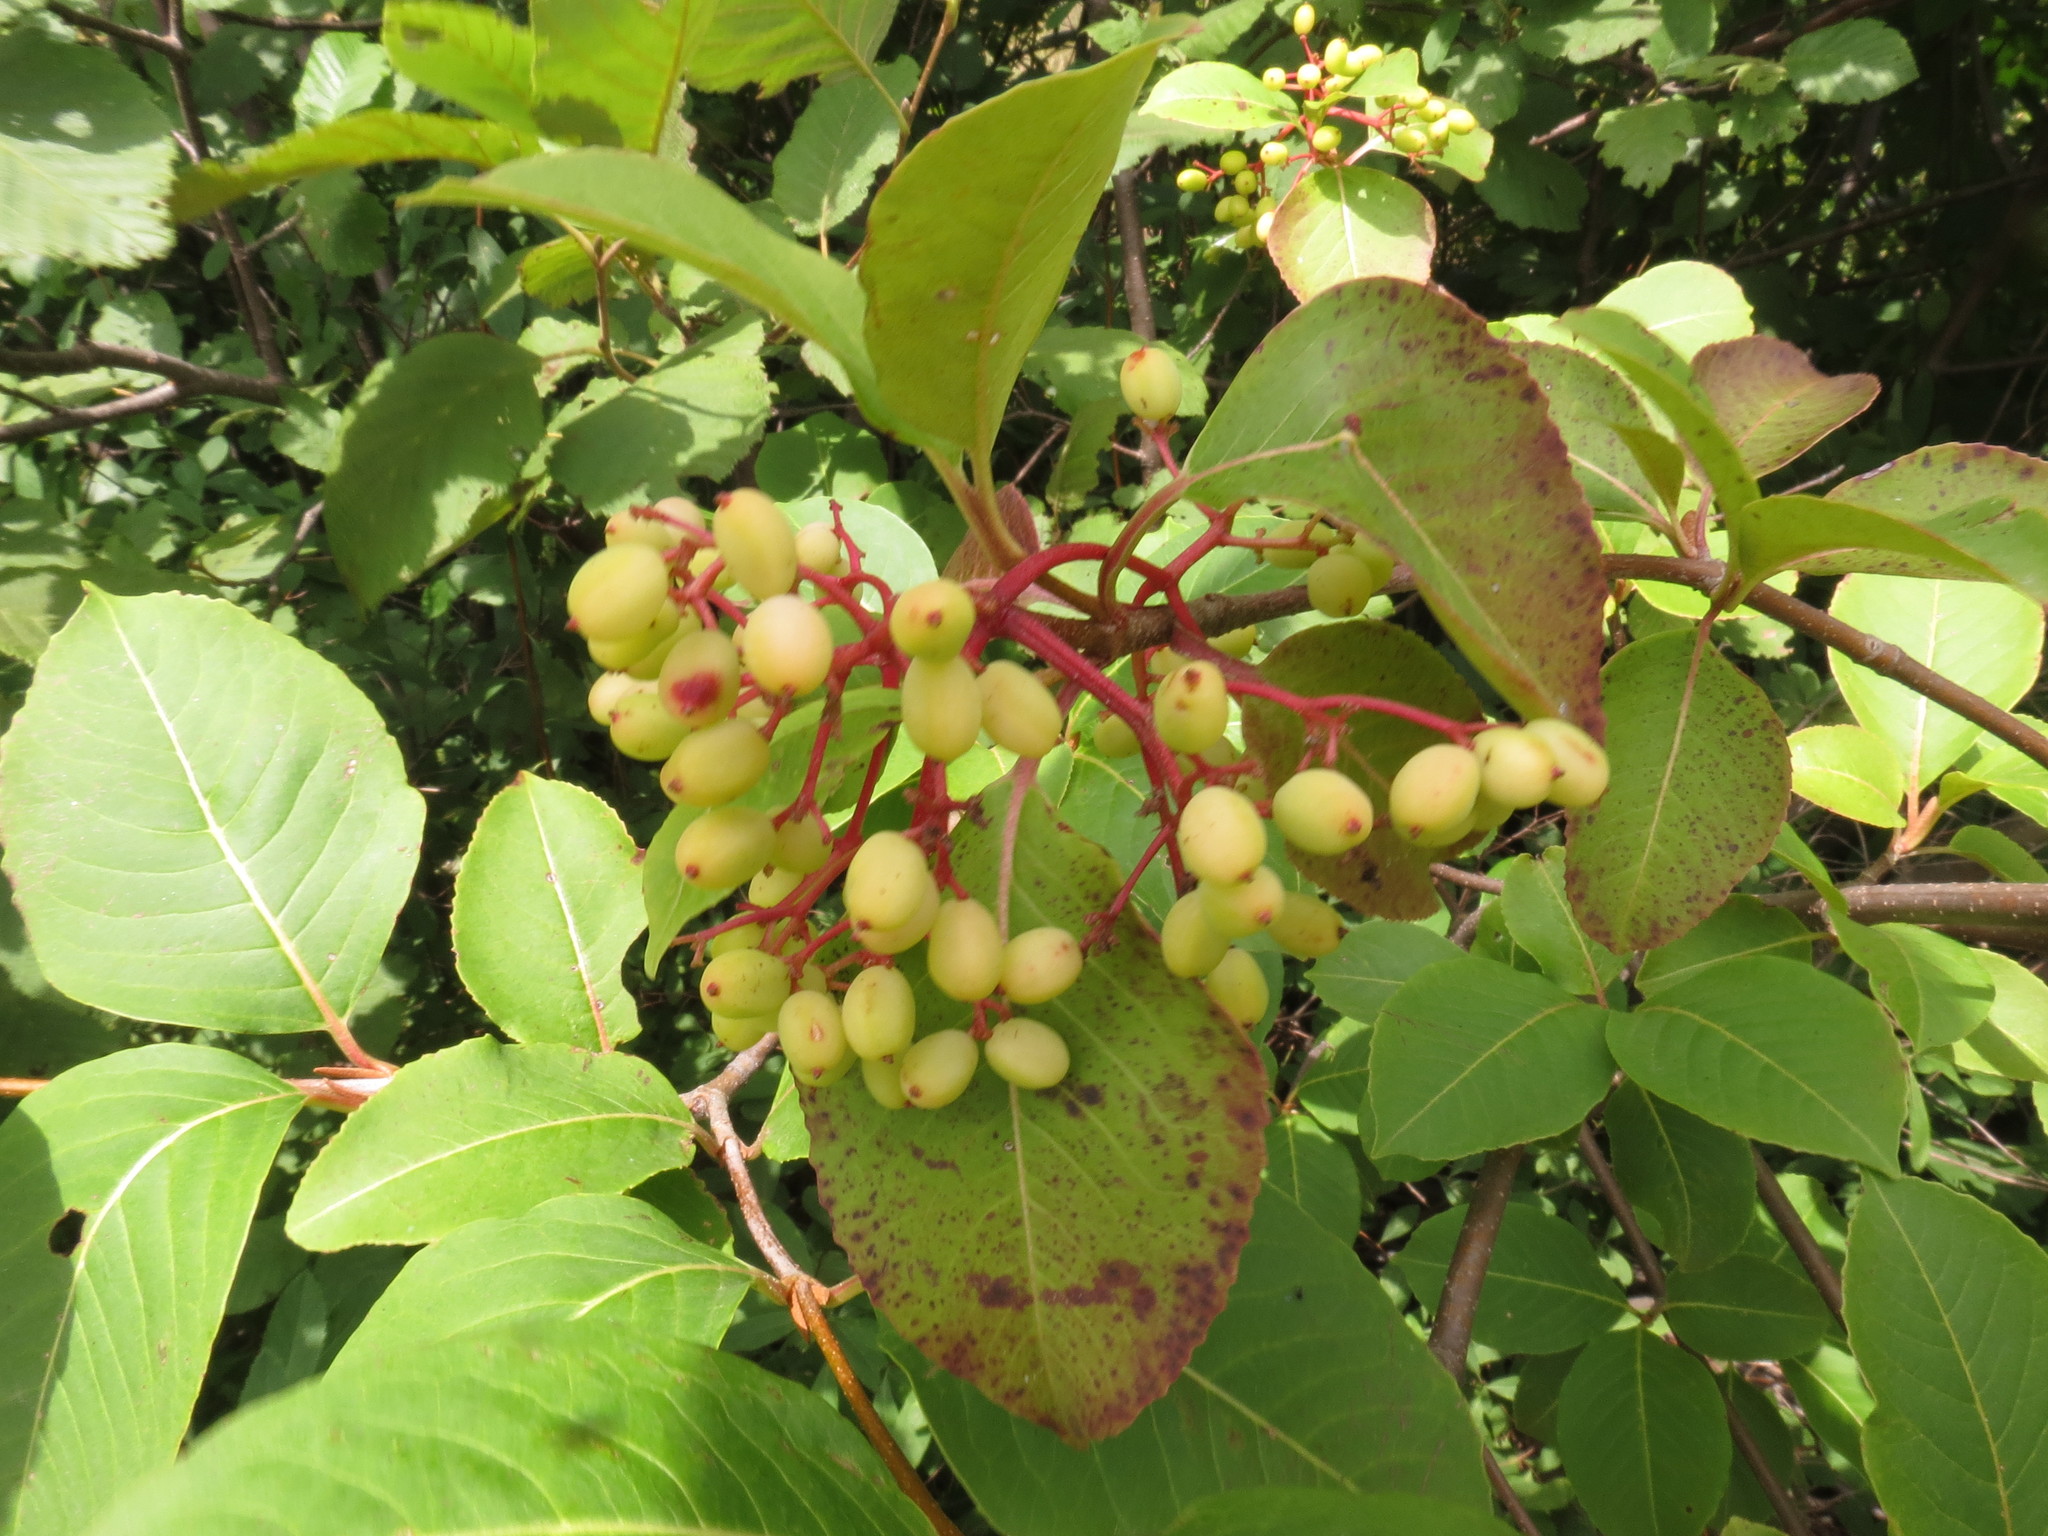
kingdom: Plantae
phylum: Tracheophyta
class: Magnoliopsida
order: Dipsacales
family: Viburnaceae
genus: Viburnum
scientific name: Viburnum cassinoides
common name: Swamp haw
